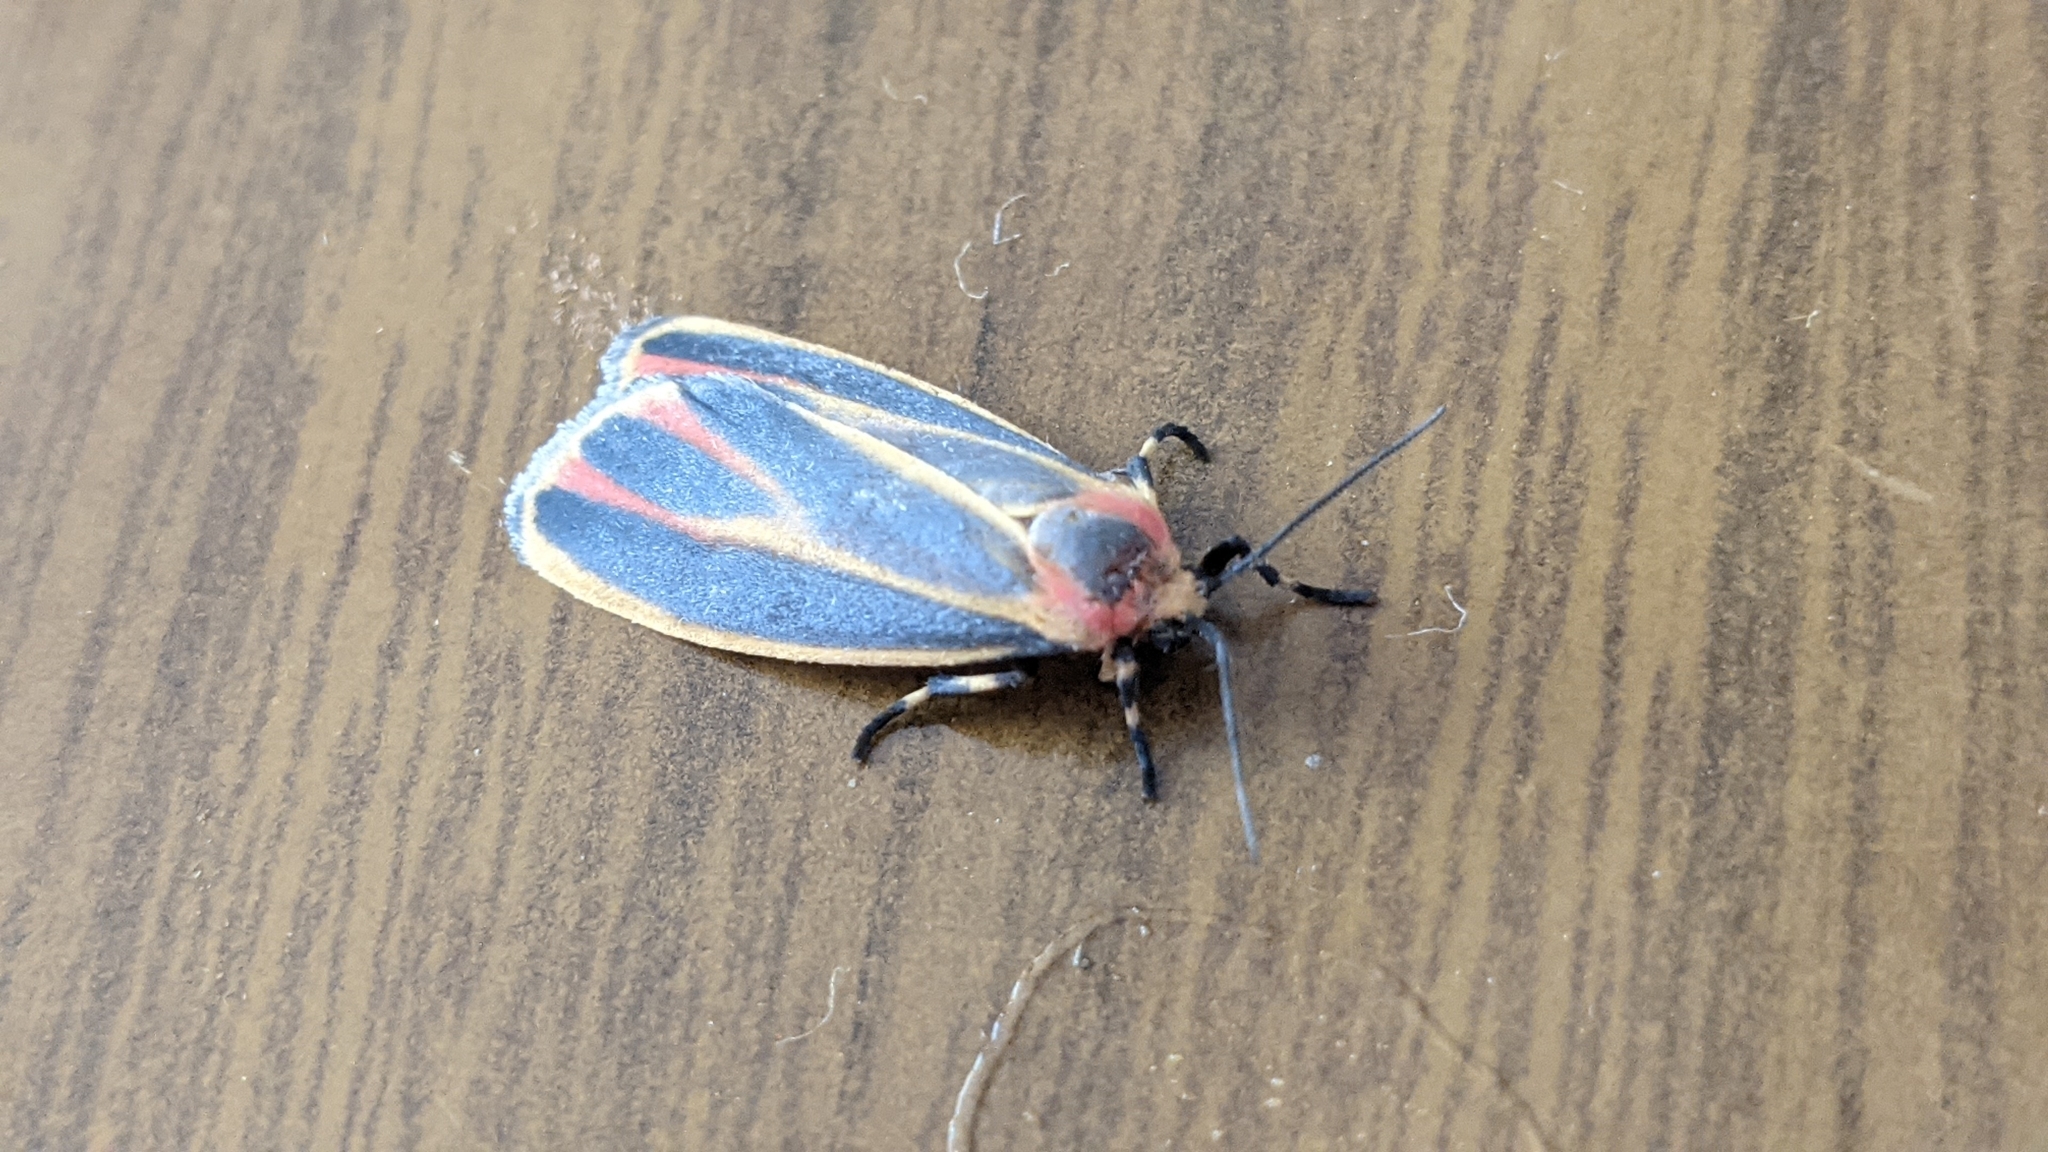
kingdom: Animalia
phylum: Arthropoda
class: Insecta
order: Lepidoptera
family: Erebidae
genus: Hypoprepia
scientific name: Hypoprepia fucosa
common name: Painted lichen moth
